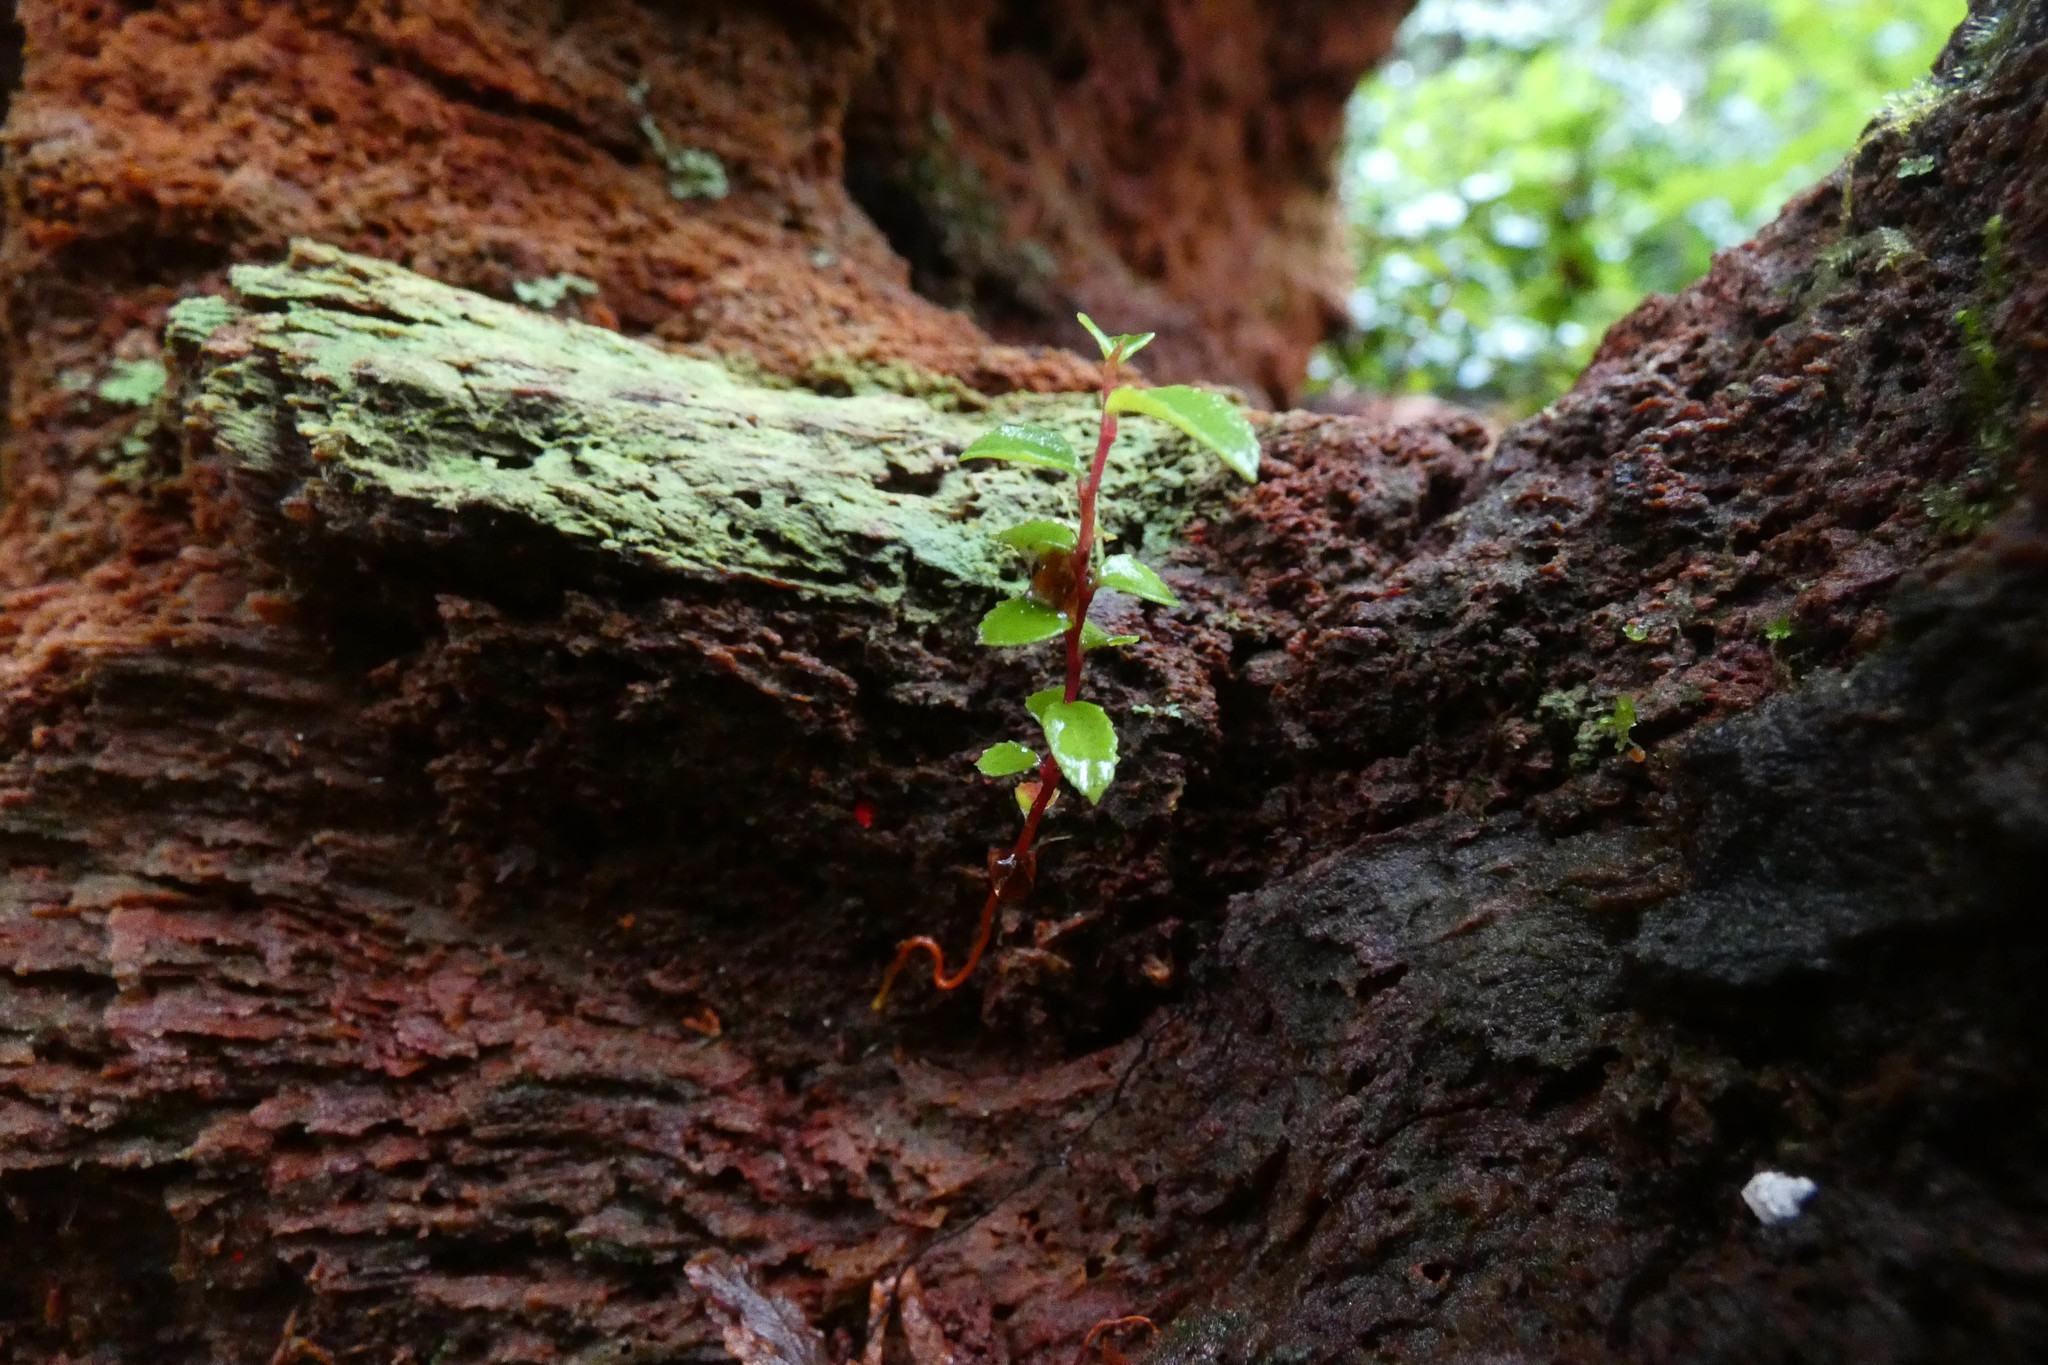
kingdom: Plantae
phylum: Tracheophyta
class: Magnoliopsida
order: Ericales
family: Ericaceae
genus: Vaccinium
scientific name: Vaccinium ovatum
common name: California-huckleberry
